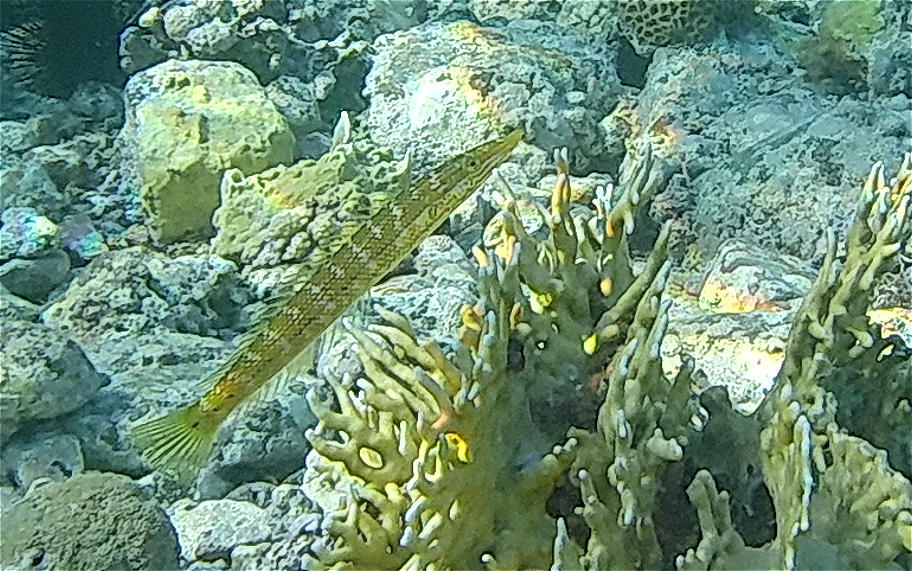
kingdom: Animalia
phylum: Chordata
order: Perciformes
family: Labridae
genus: Cheilio
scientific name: Cheilio inermis
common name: Cigar wrasse
